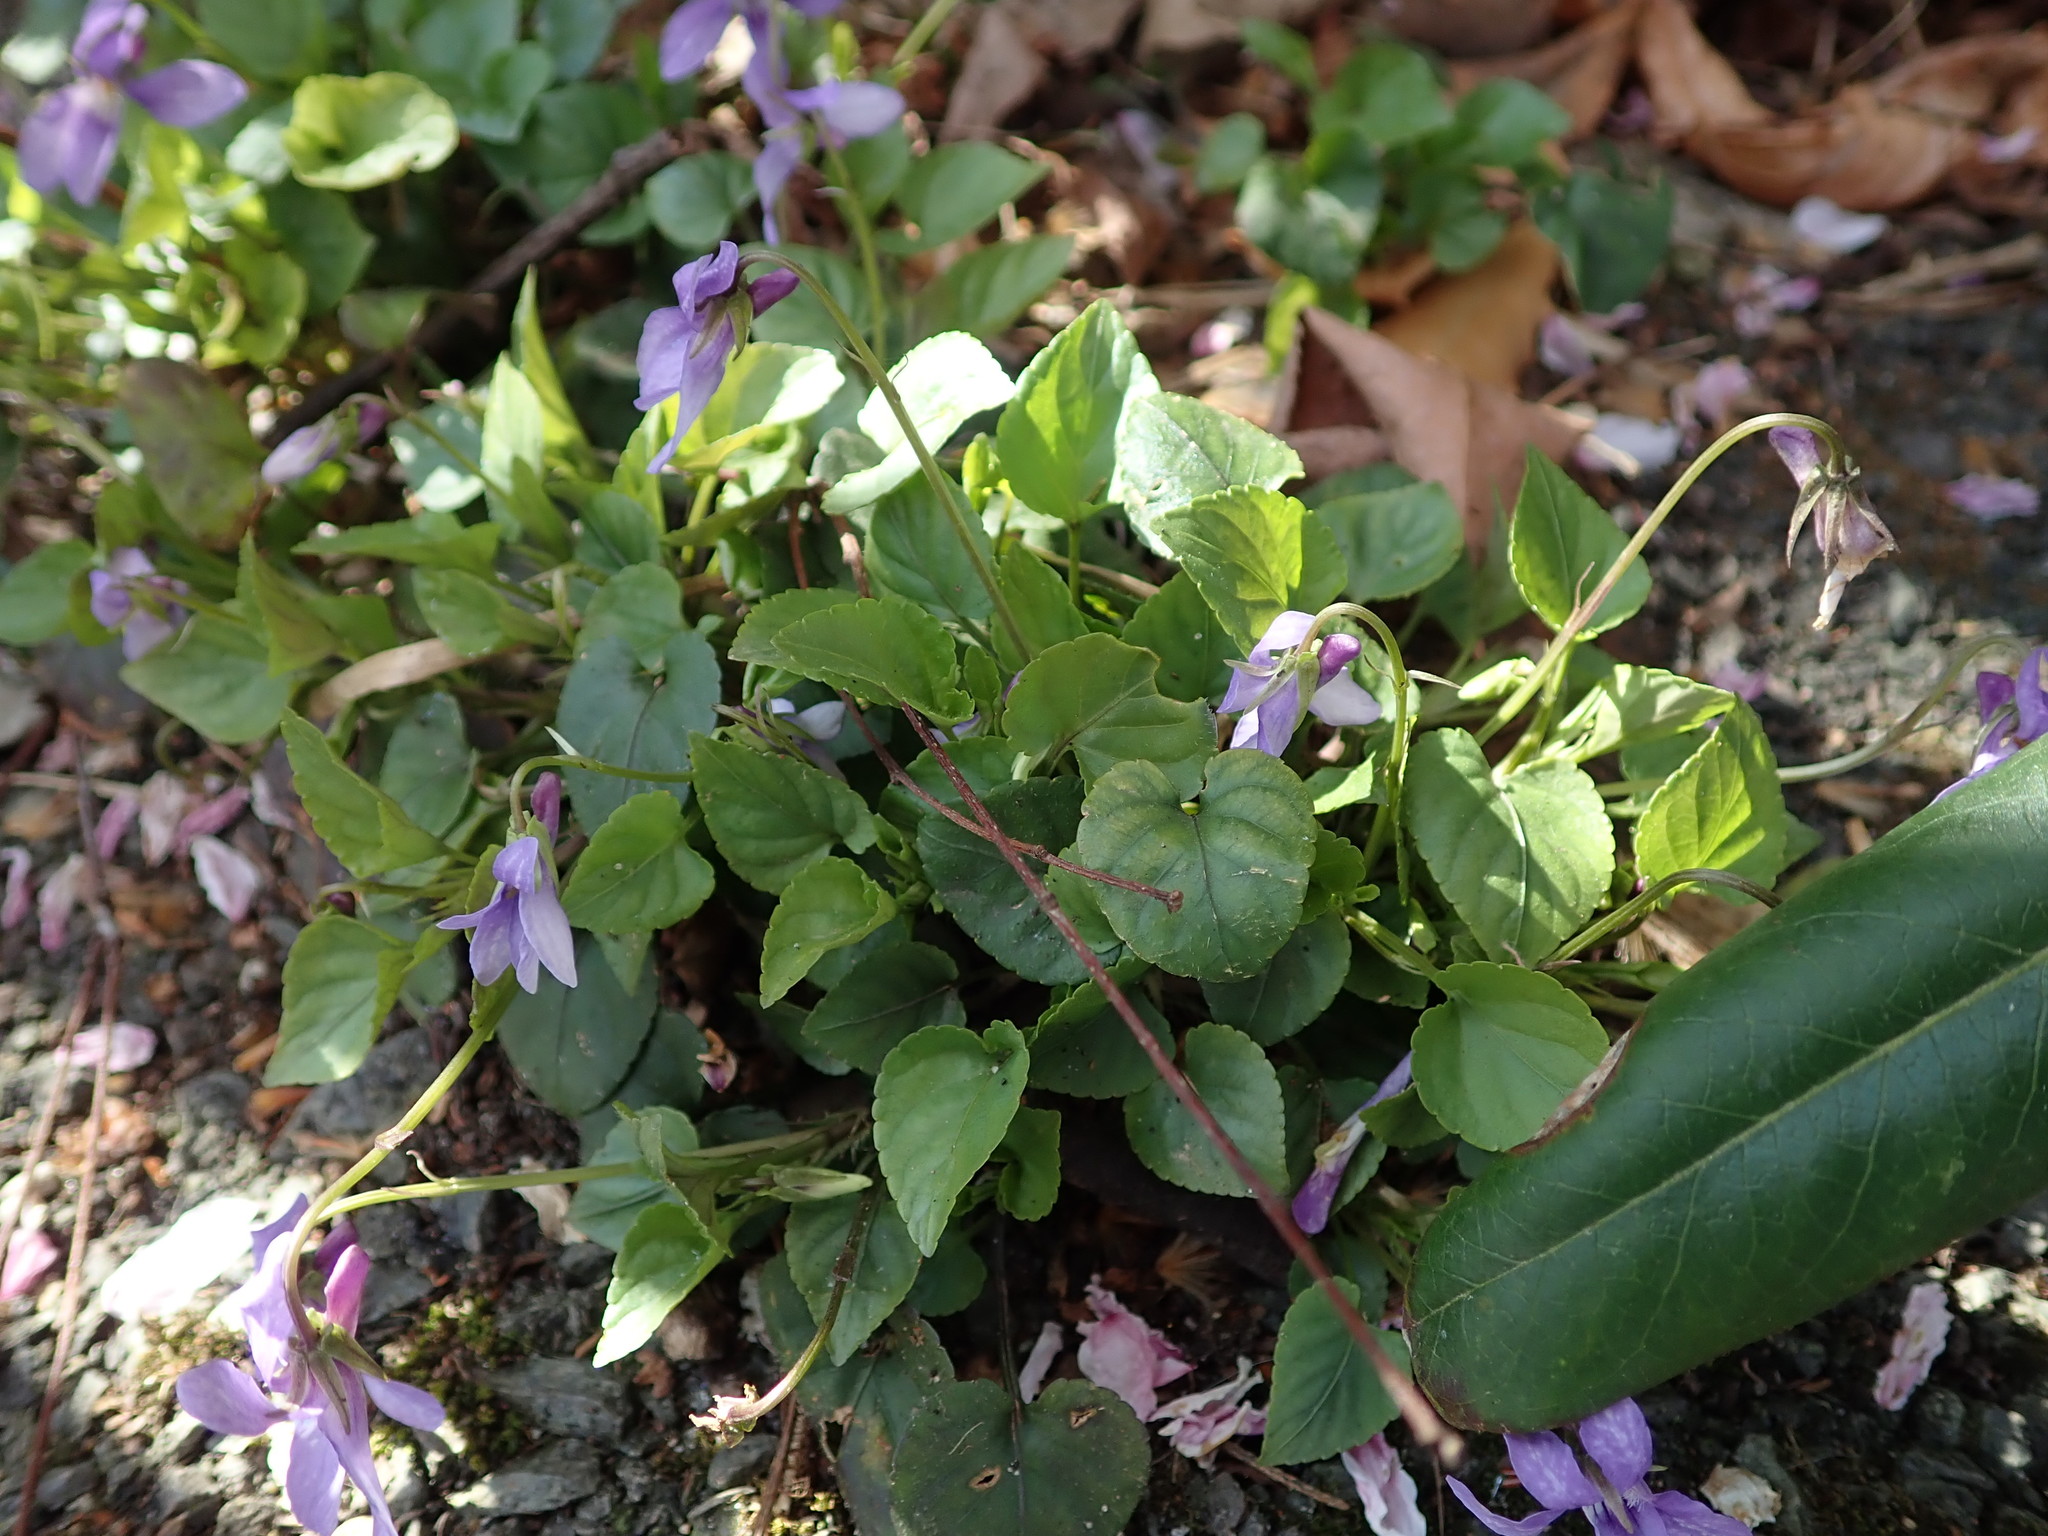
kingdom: Plantae
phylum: Tracheophyta
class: Magnoliopsida
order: Malpighiales
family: Violaceae
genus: Viola
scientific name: Viola reichenbachiana
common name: Early dog-violet
